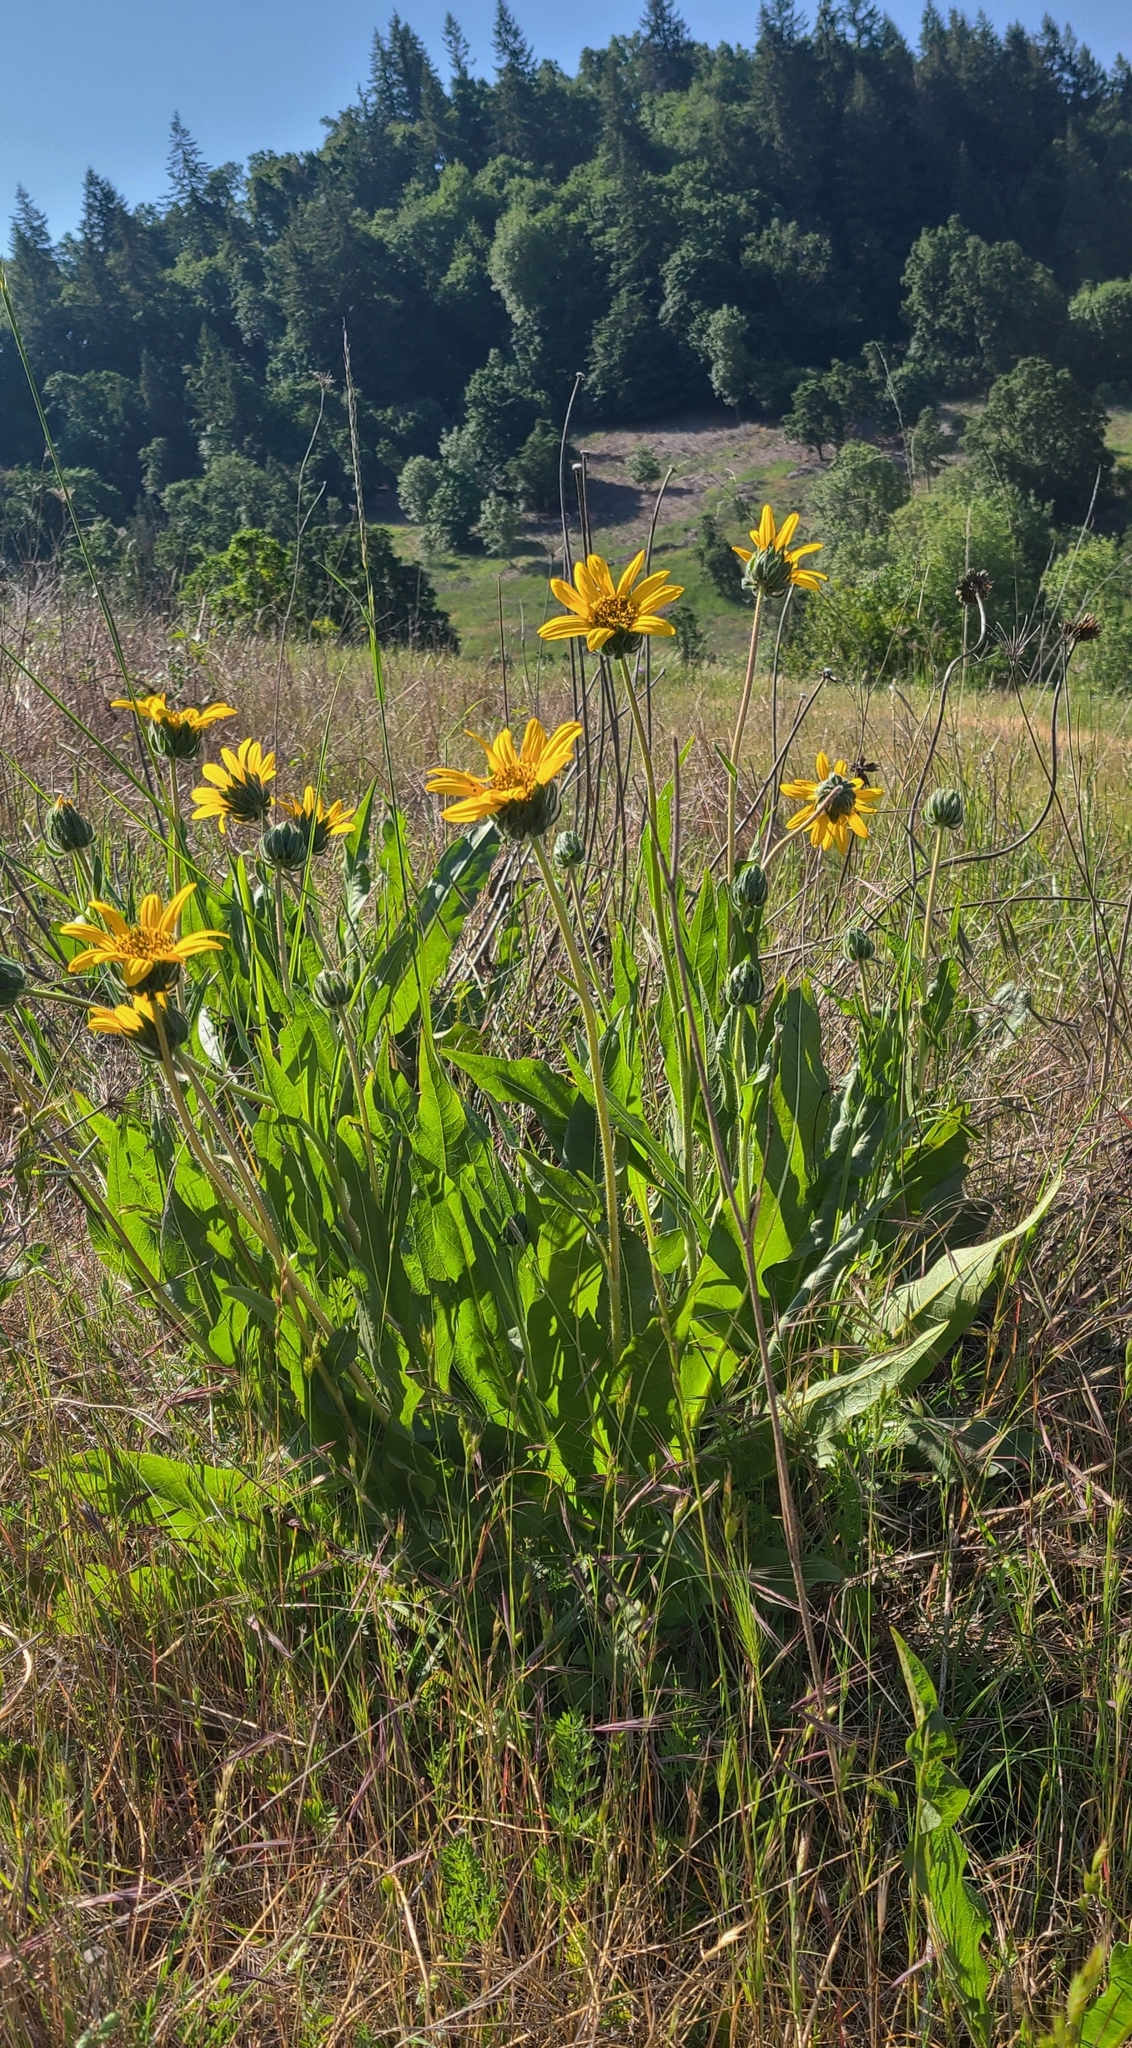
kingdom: Plantae
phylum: Tracheophyta
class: Magnoliopsida
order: Asterales
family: Asteraceae
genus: Wyethia
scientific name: Wyethia angustifolia
